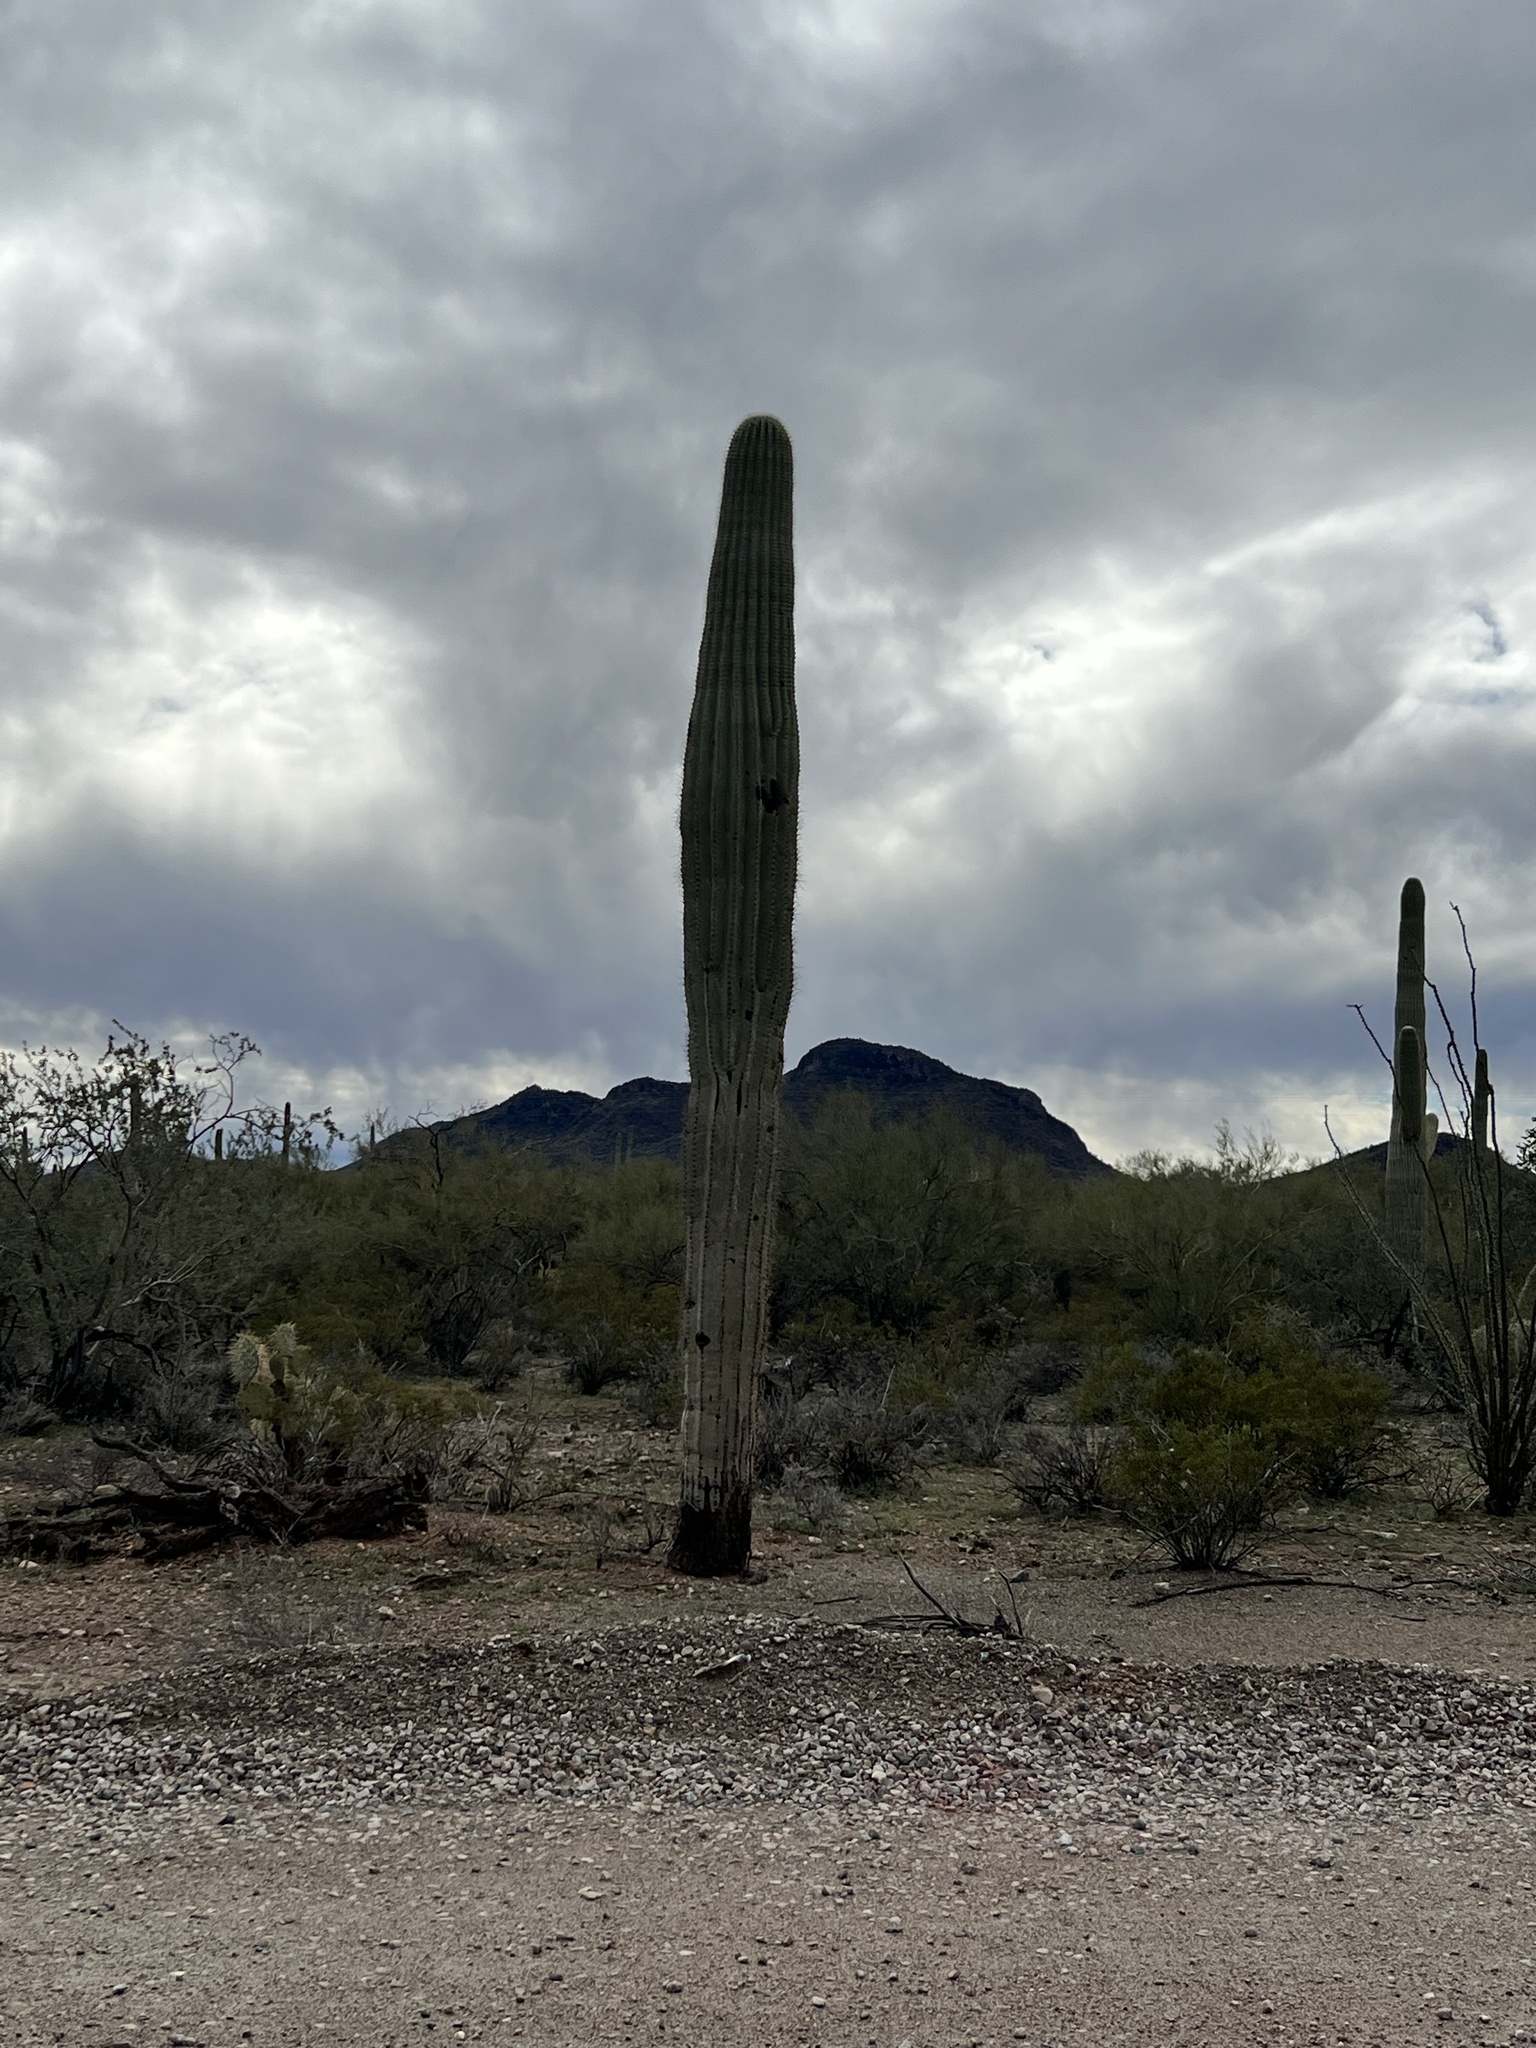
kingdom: Plantae
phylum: Tracheophyta
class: Magnoliopsida
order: Caryophyllales
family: Cactaceae
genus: Carnegiea
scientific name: Carnegiea gigantea
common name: Saguaro
